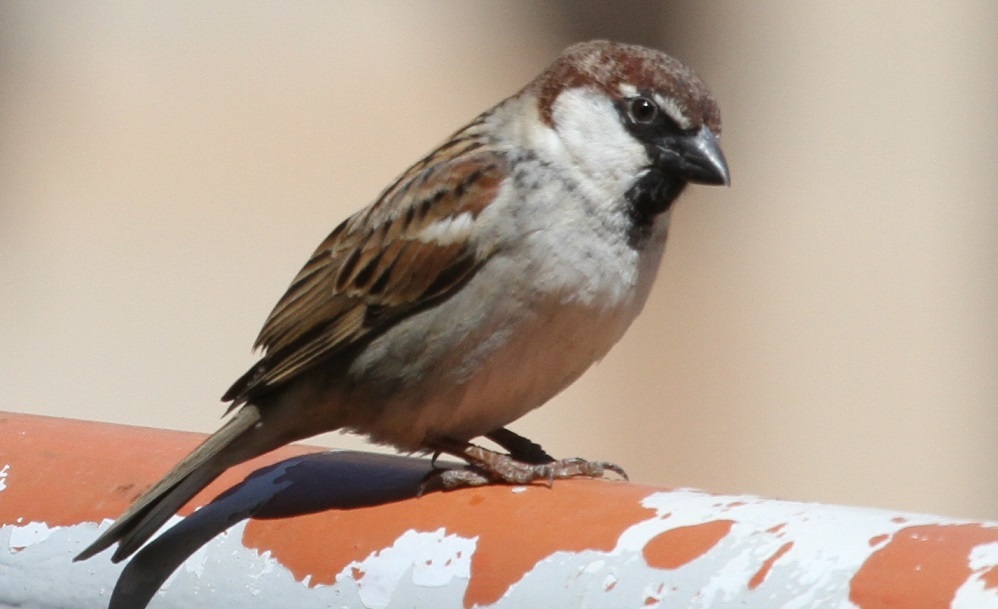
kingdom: Animalia
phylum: Chordata
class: Aves
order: Passeriformes
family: Passeridae
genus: Passer
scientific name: Passer domesticus
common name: House sparrow
